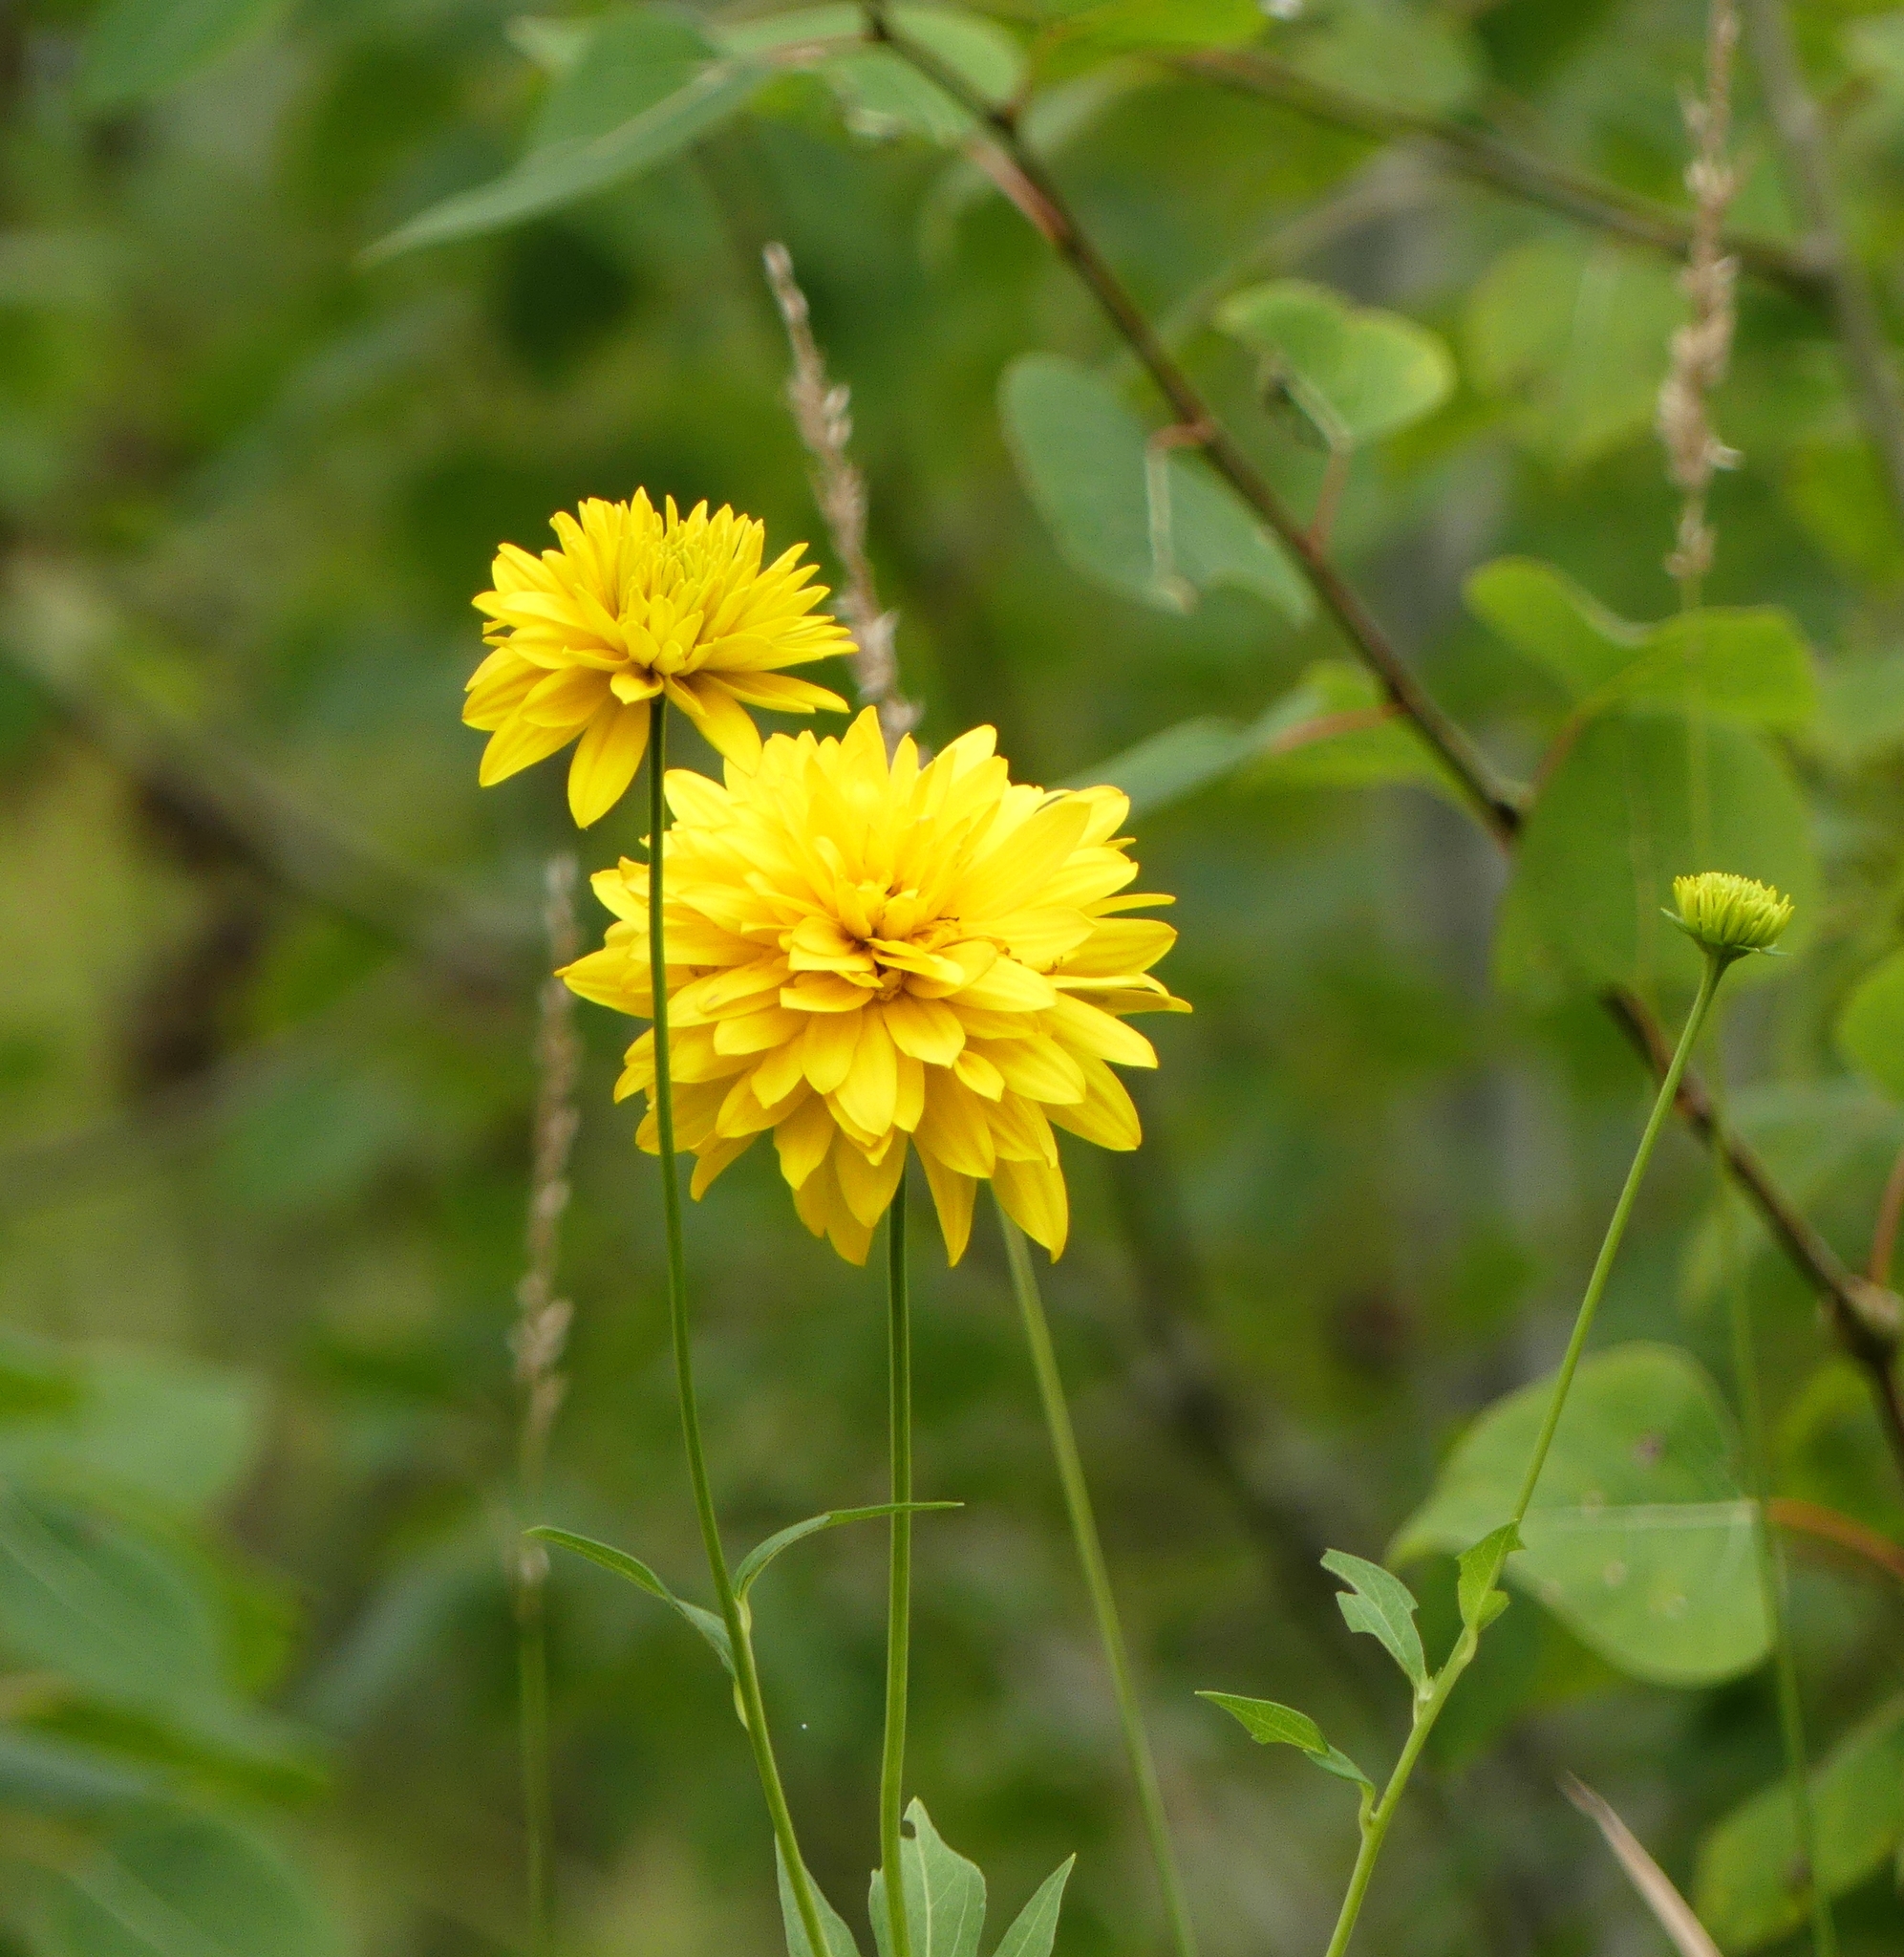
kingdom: Plantae
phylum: Tracheophyta
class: Magnoliopsida
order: Asterales
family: Asteraceae
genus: Rudbeckia
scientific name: Rudbeckia laciniata
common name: Coneflower
